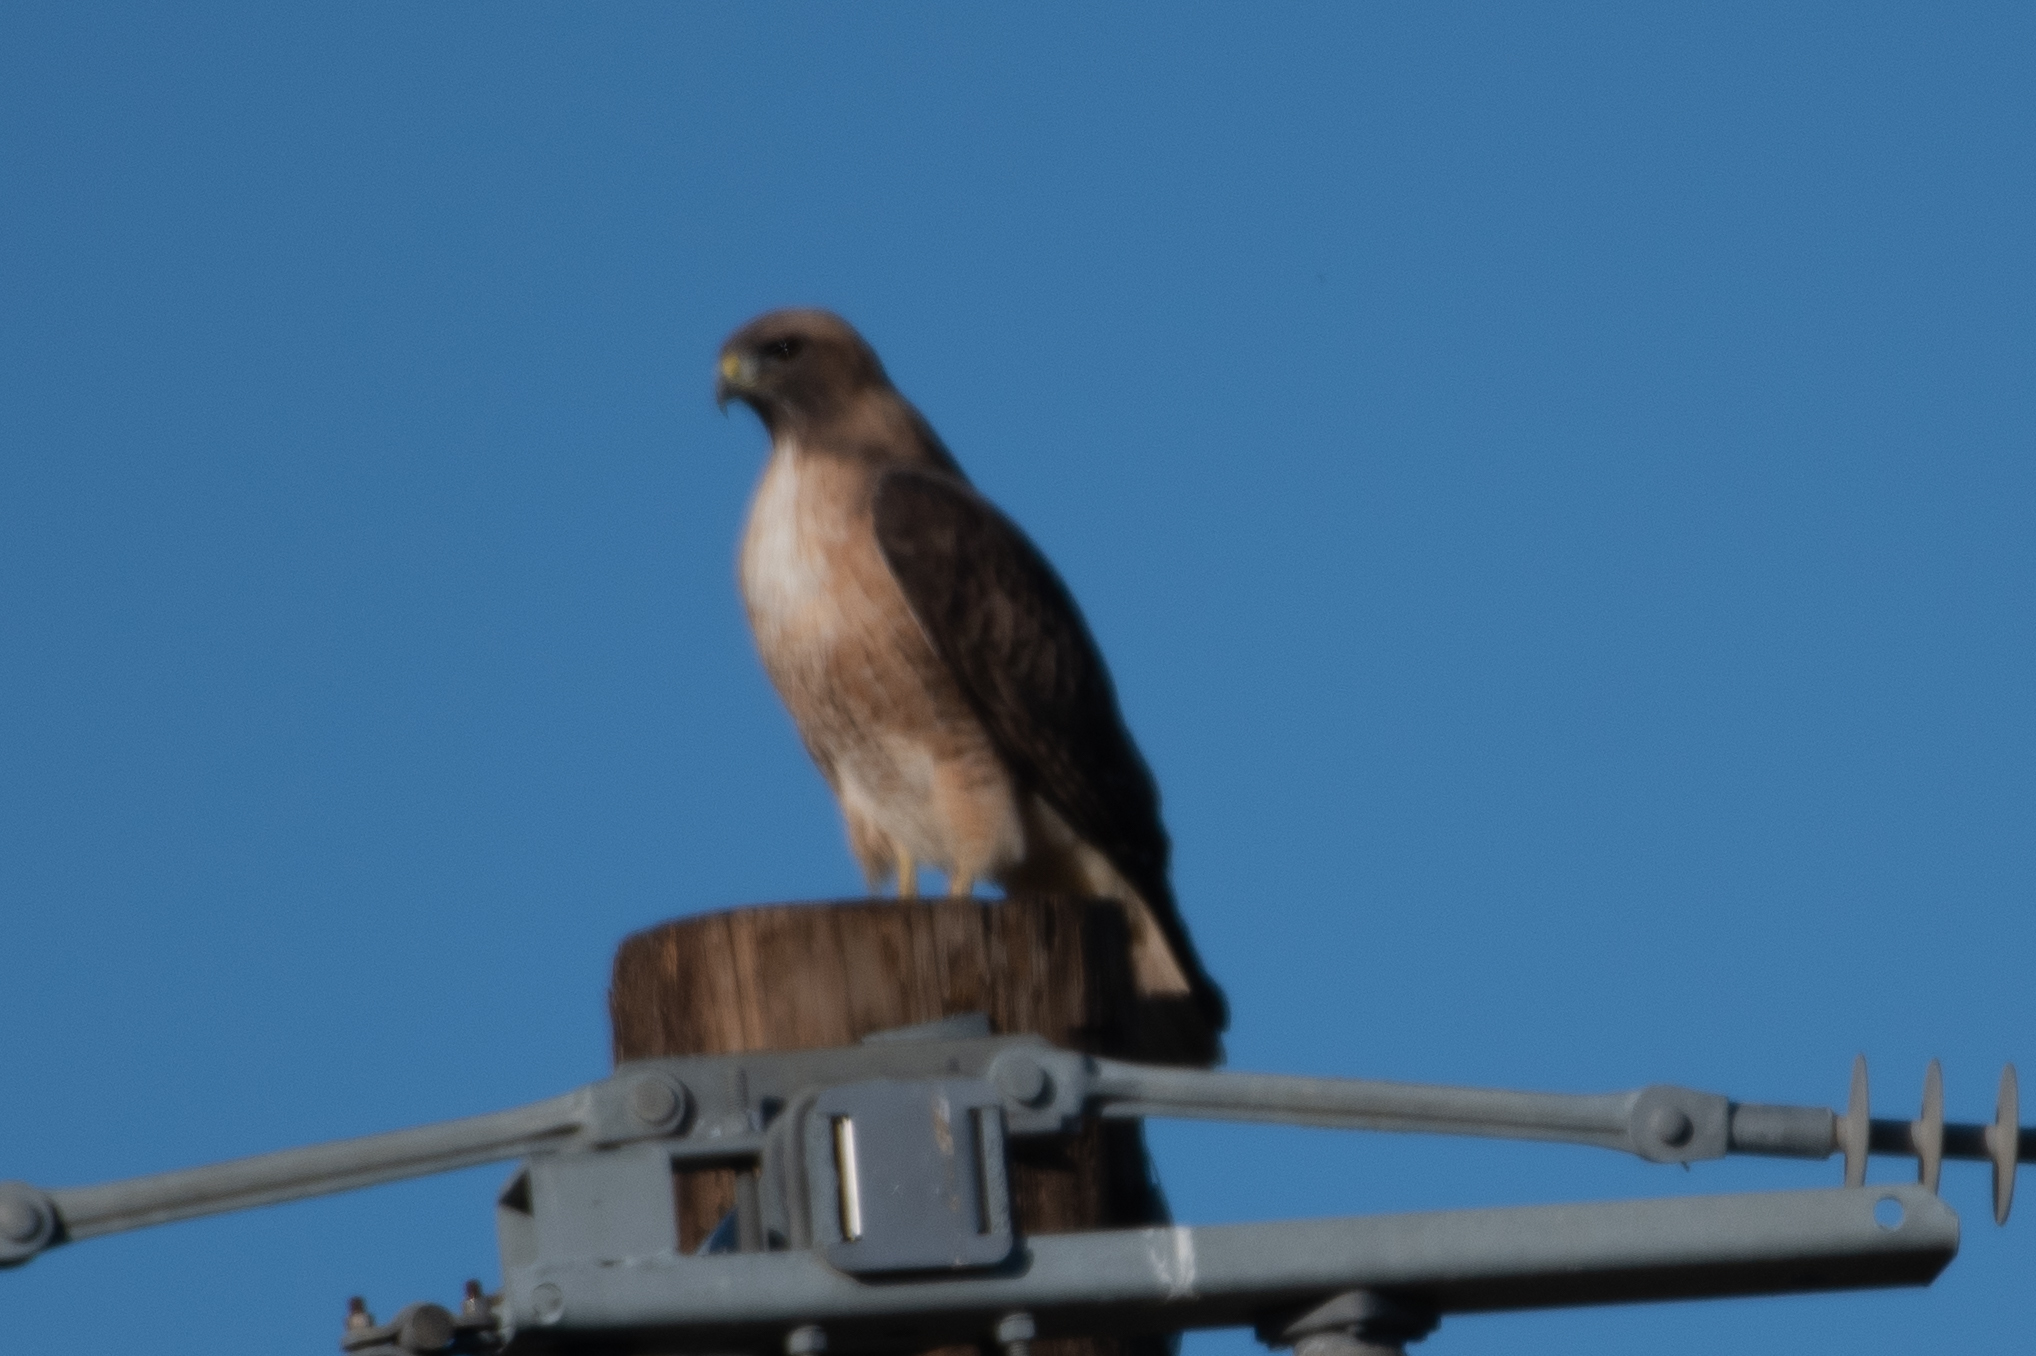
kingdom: Animalia
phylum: Chordata
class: Aves
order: Accipitriformes
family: Accipitridae
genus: Buteo
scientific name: Buteo jamaicensis
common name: Red-tailed hawk
